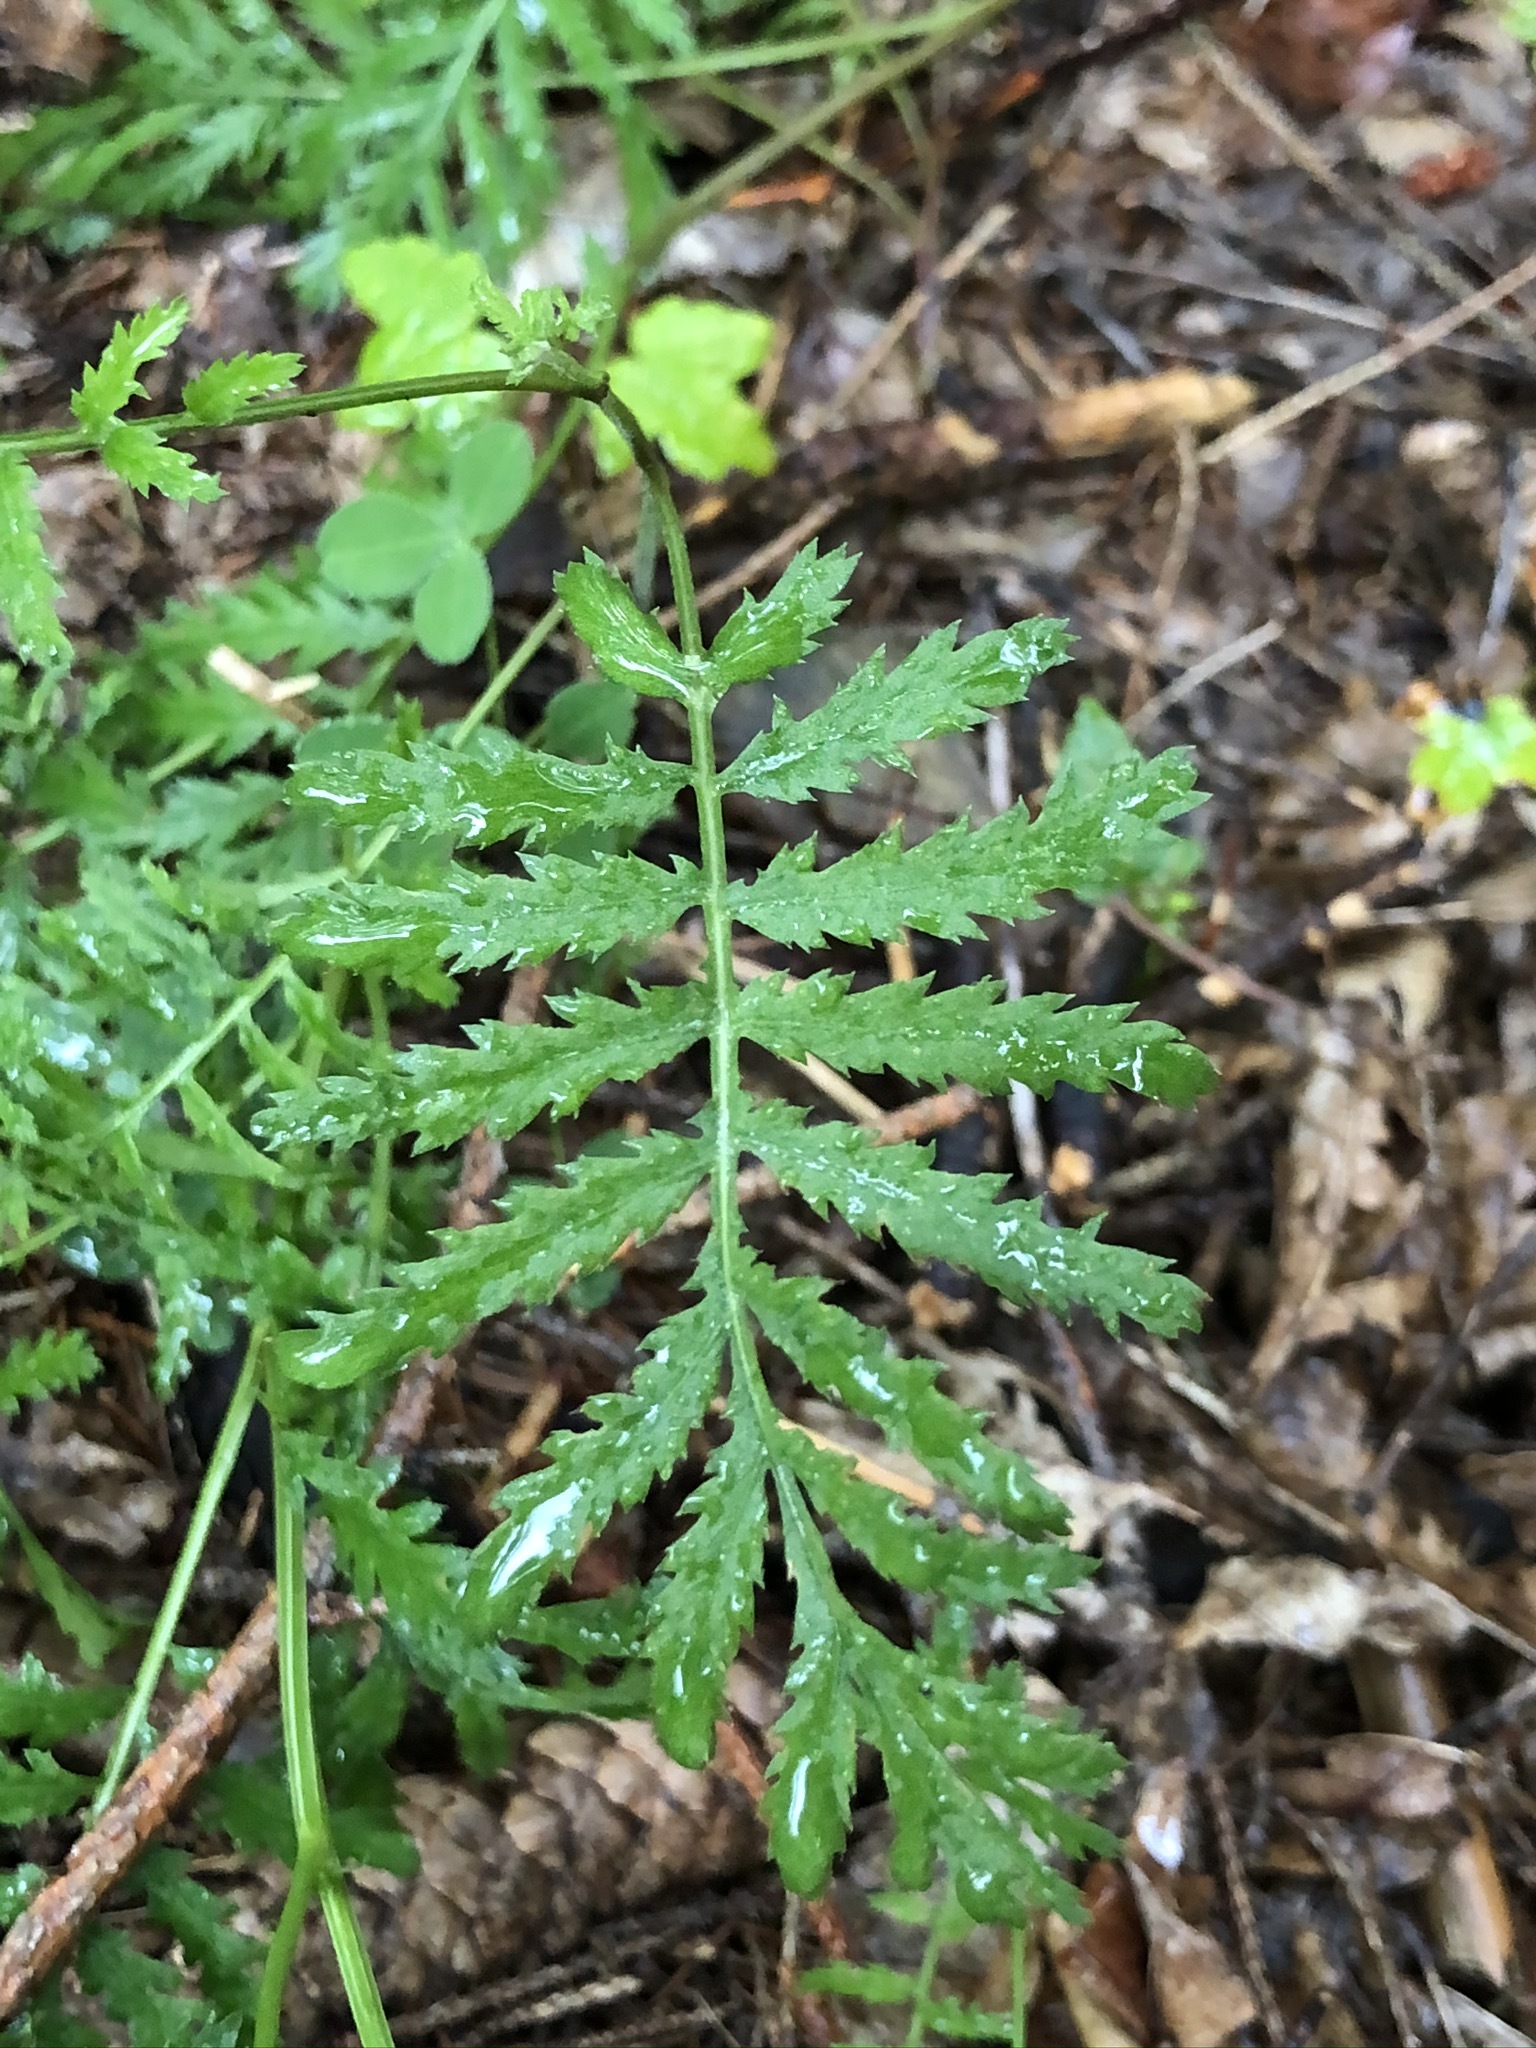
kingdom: Plantae
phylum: Tracheophyta
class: Magnoliopsida
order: Asterales
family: Asteraceae
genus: Tanacetum
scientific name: Tanacetum vulgare
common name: Common tansy
